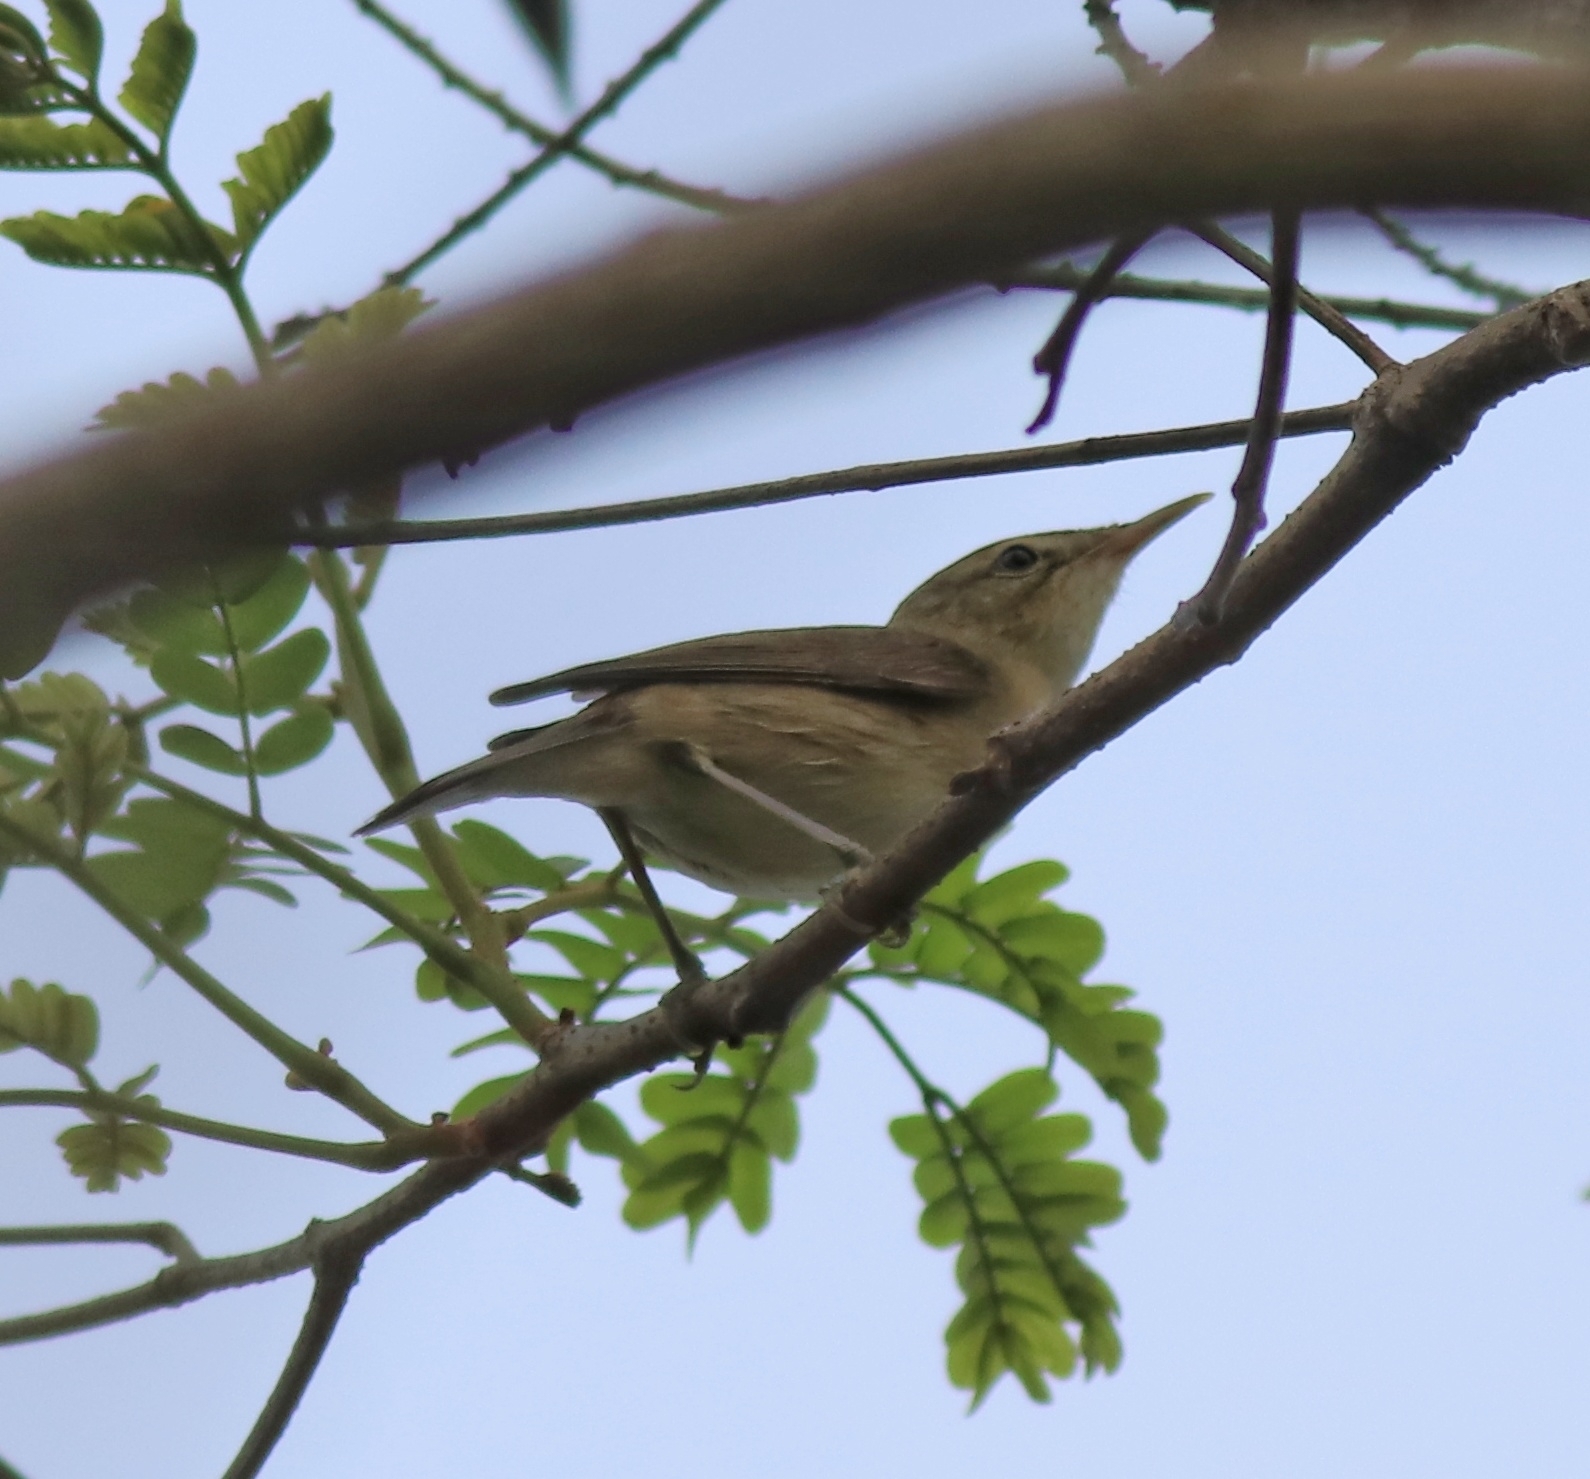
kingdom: Animalia
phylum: Chordata
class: Aves
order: Passeriformes
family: Acrocephalidae
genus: Acrocephalus
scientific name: Acrocephalus dumetorum
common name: Blyth's reed warbler
